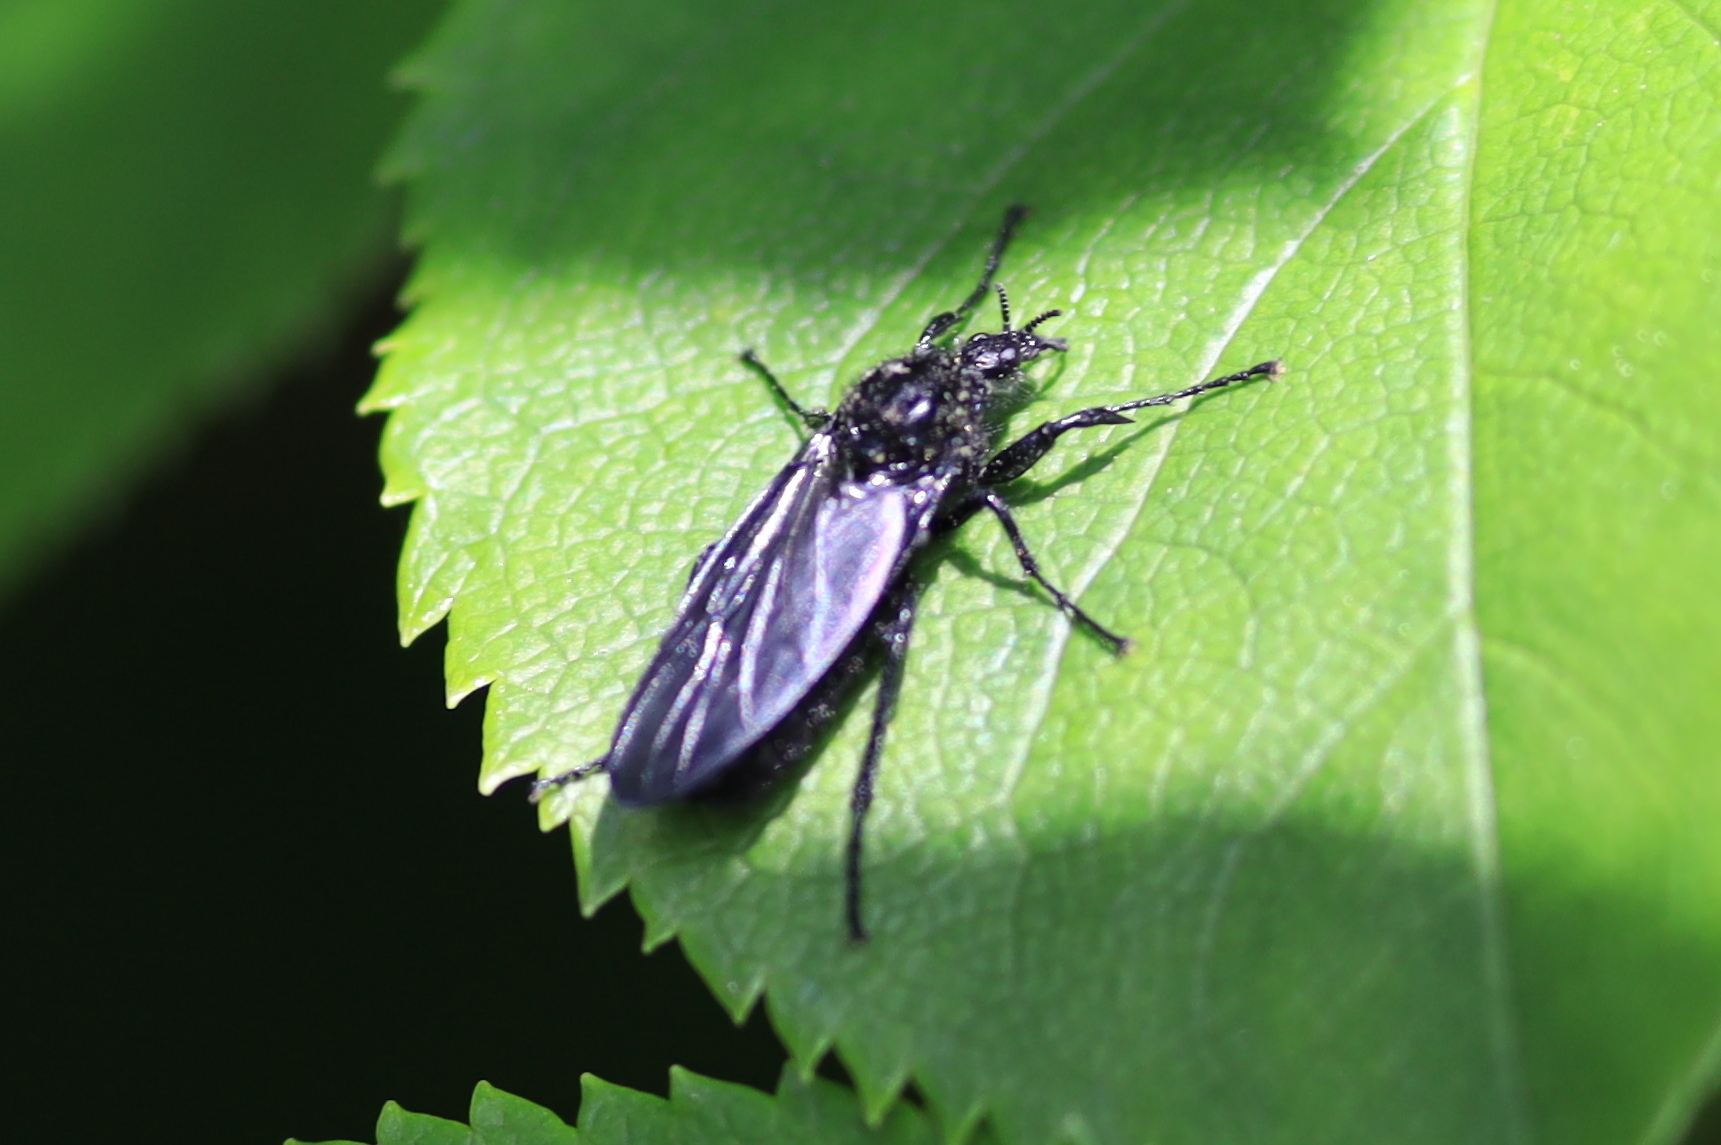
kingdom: Animalia
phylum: Arthropoda
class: Insecta
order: Diptera
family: Bibionidae
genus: Bibio
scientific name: Bibio marci
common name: St marks fly
